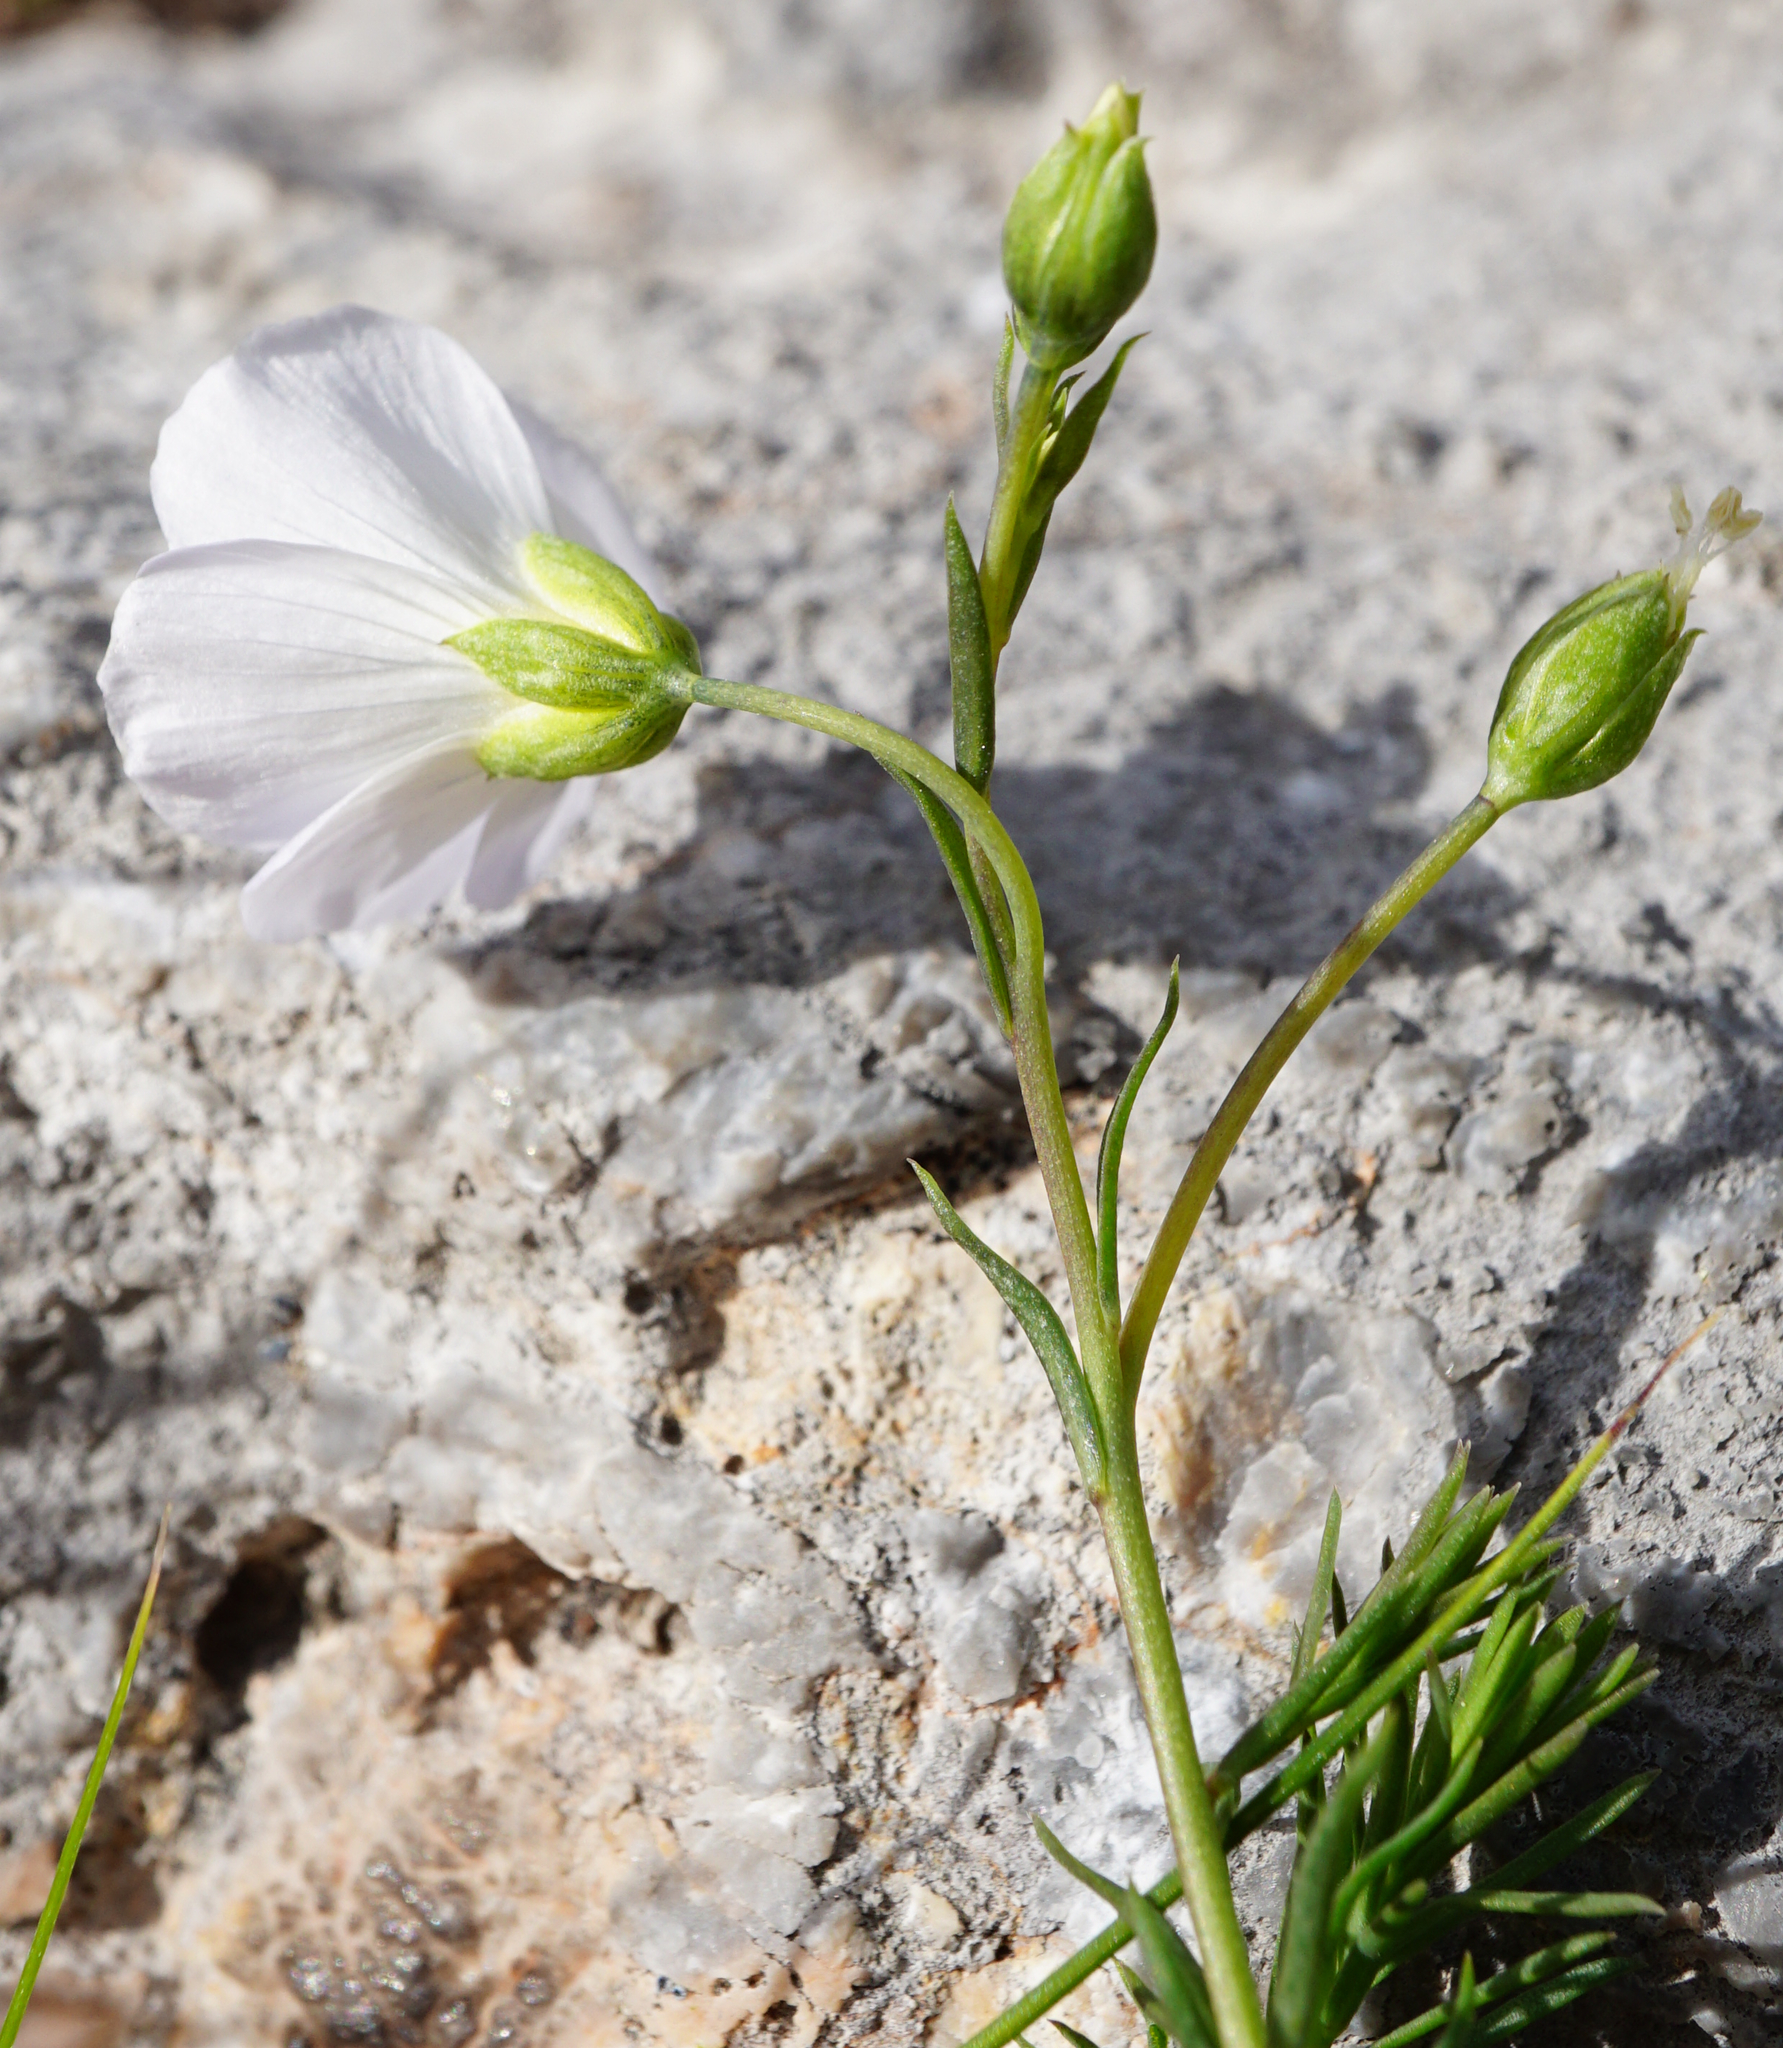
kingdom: Plantae
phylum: Tracheophyta
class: Magnoliopsida
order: Malpighiales
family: Linaceae
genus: Linum
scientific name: Linum alpinum
